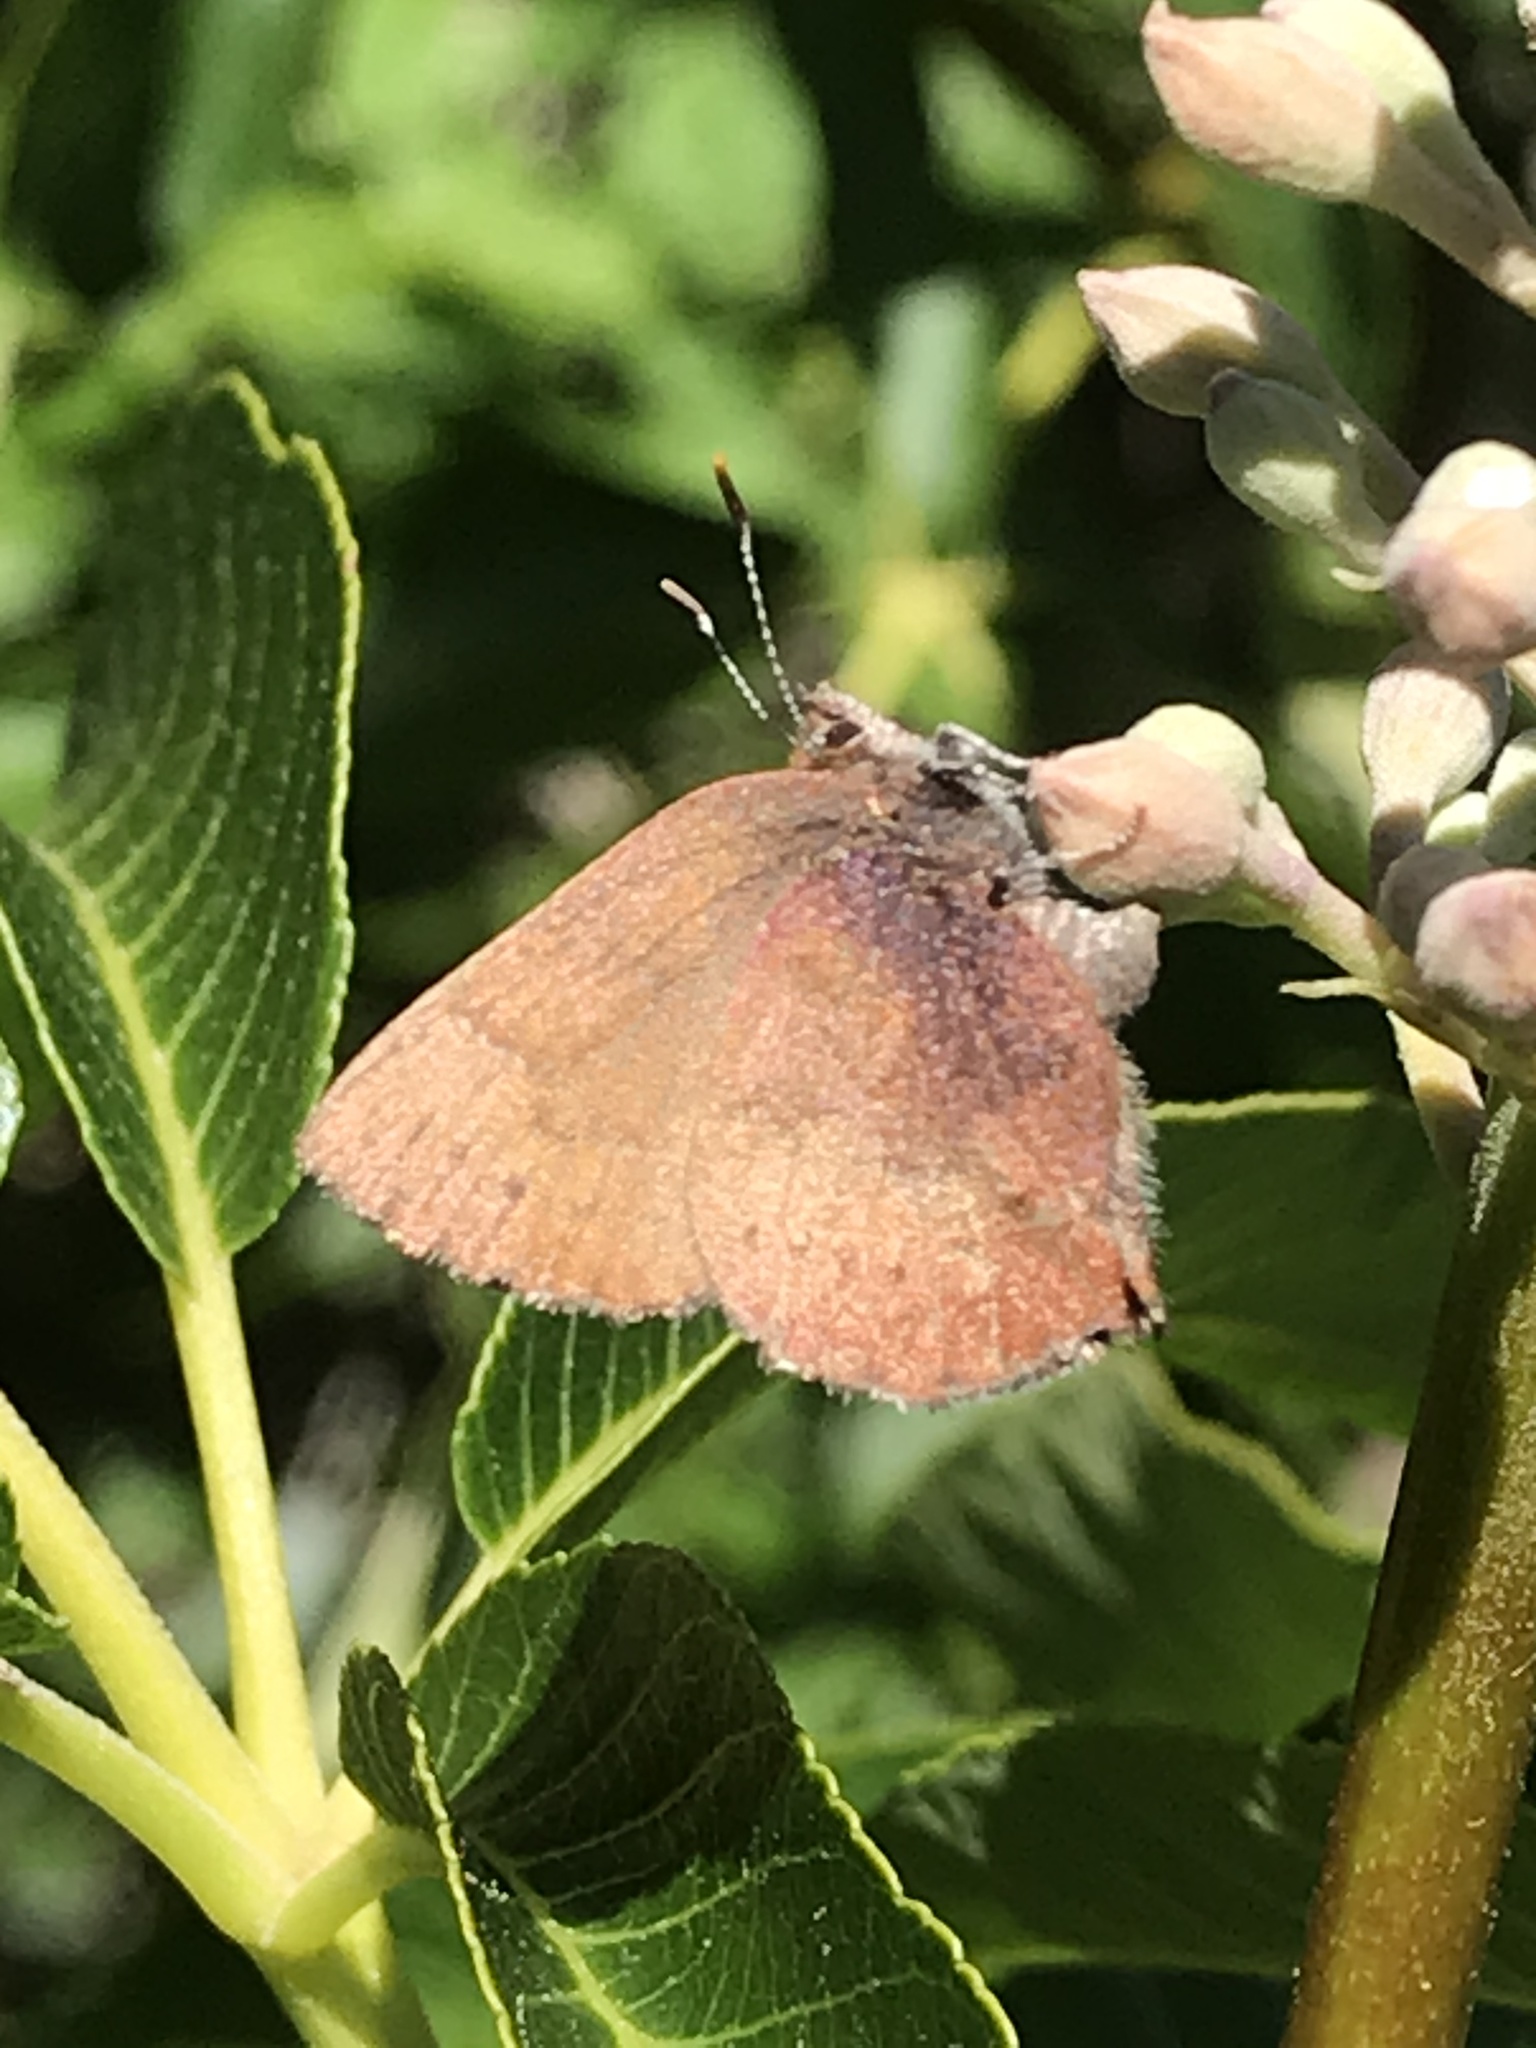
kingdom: Animalia
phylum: Arthropoda
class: Insecta
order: Lepidoptera
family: Lycaenidae
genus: Incisalia
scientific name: Incisalia irioides
